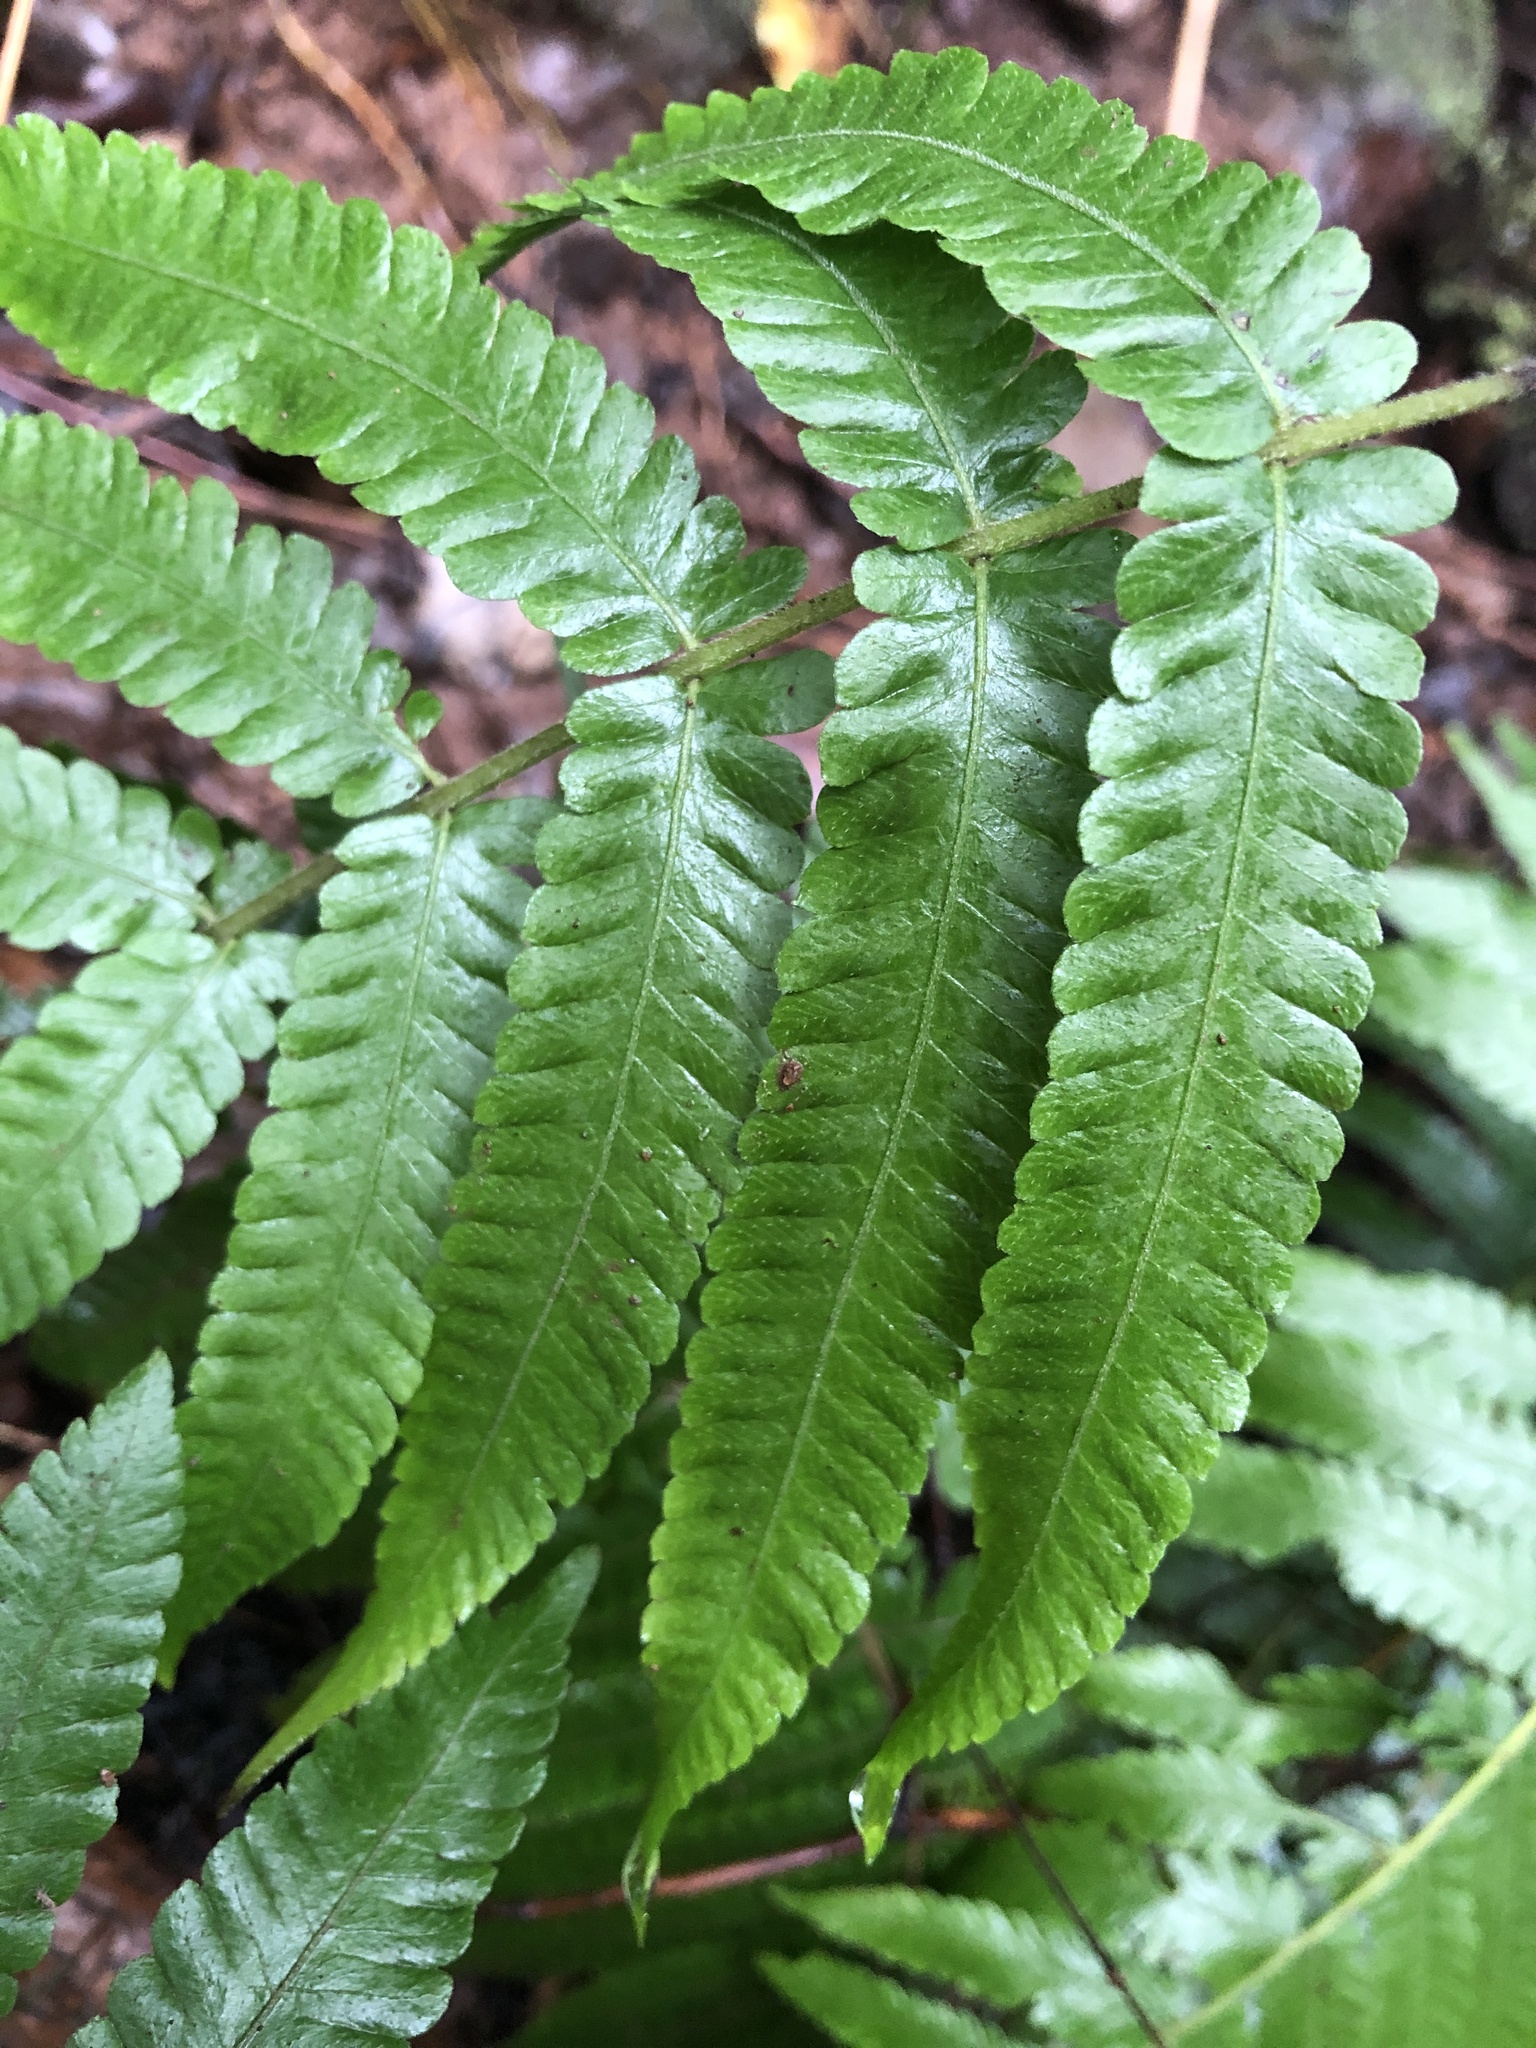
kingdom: Plantae
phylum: Tracheophyta
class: Polypodiopsida
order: Polypodiales
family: Thelypteridaceae
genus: Christella
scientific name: Christella dentata
